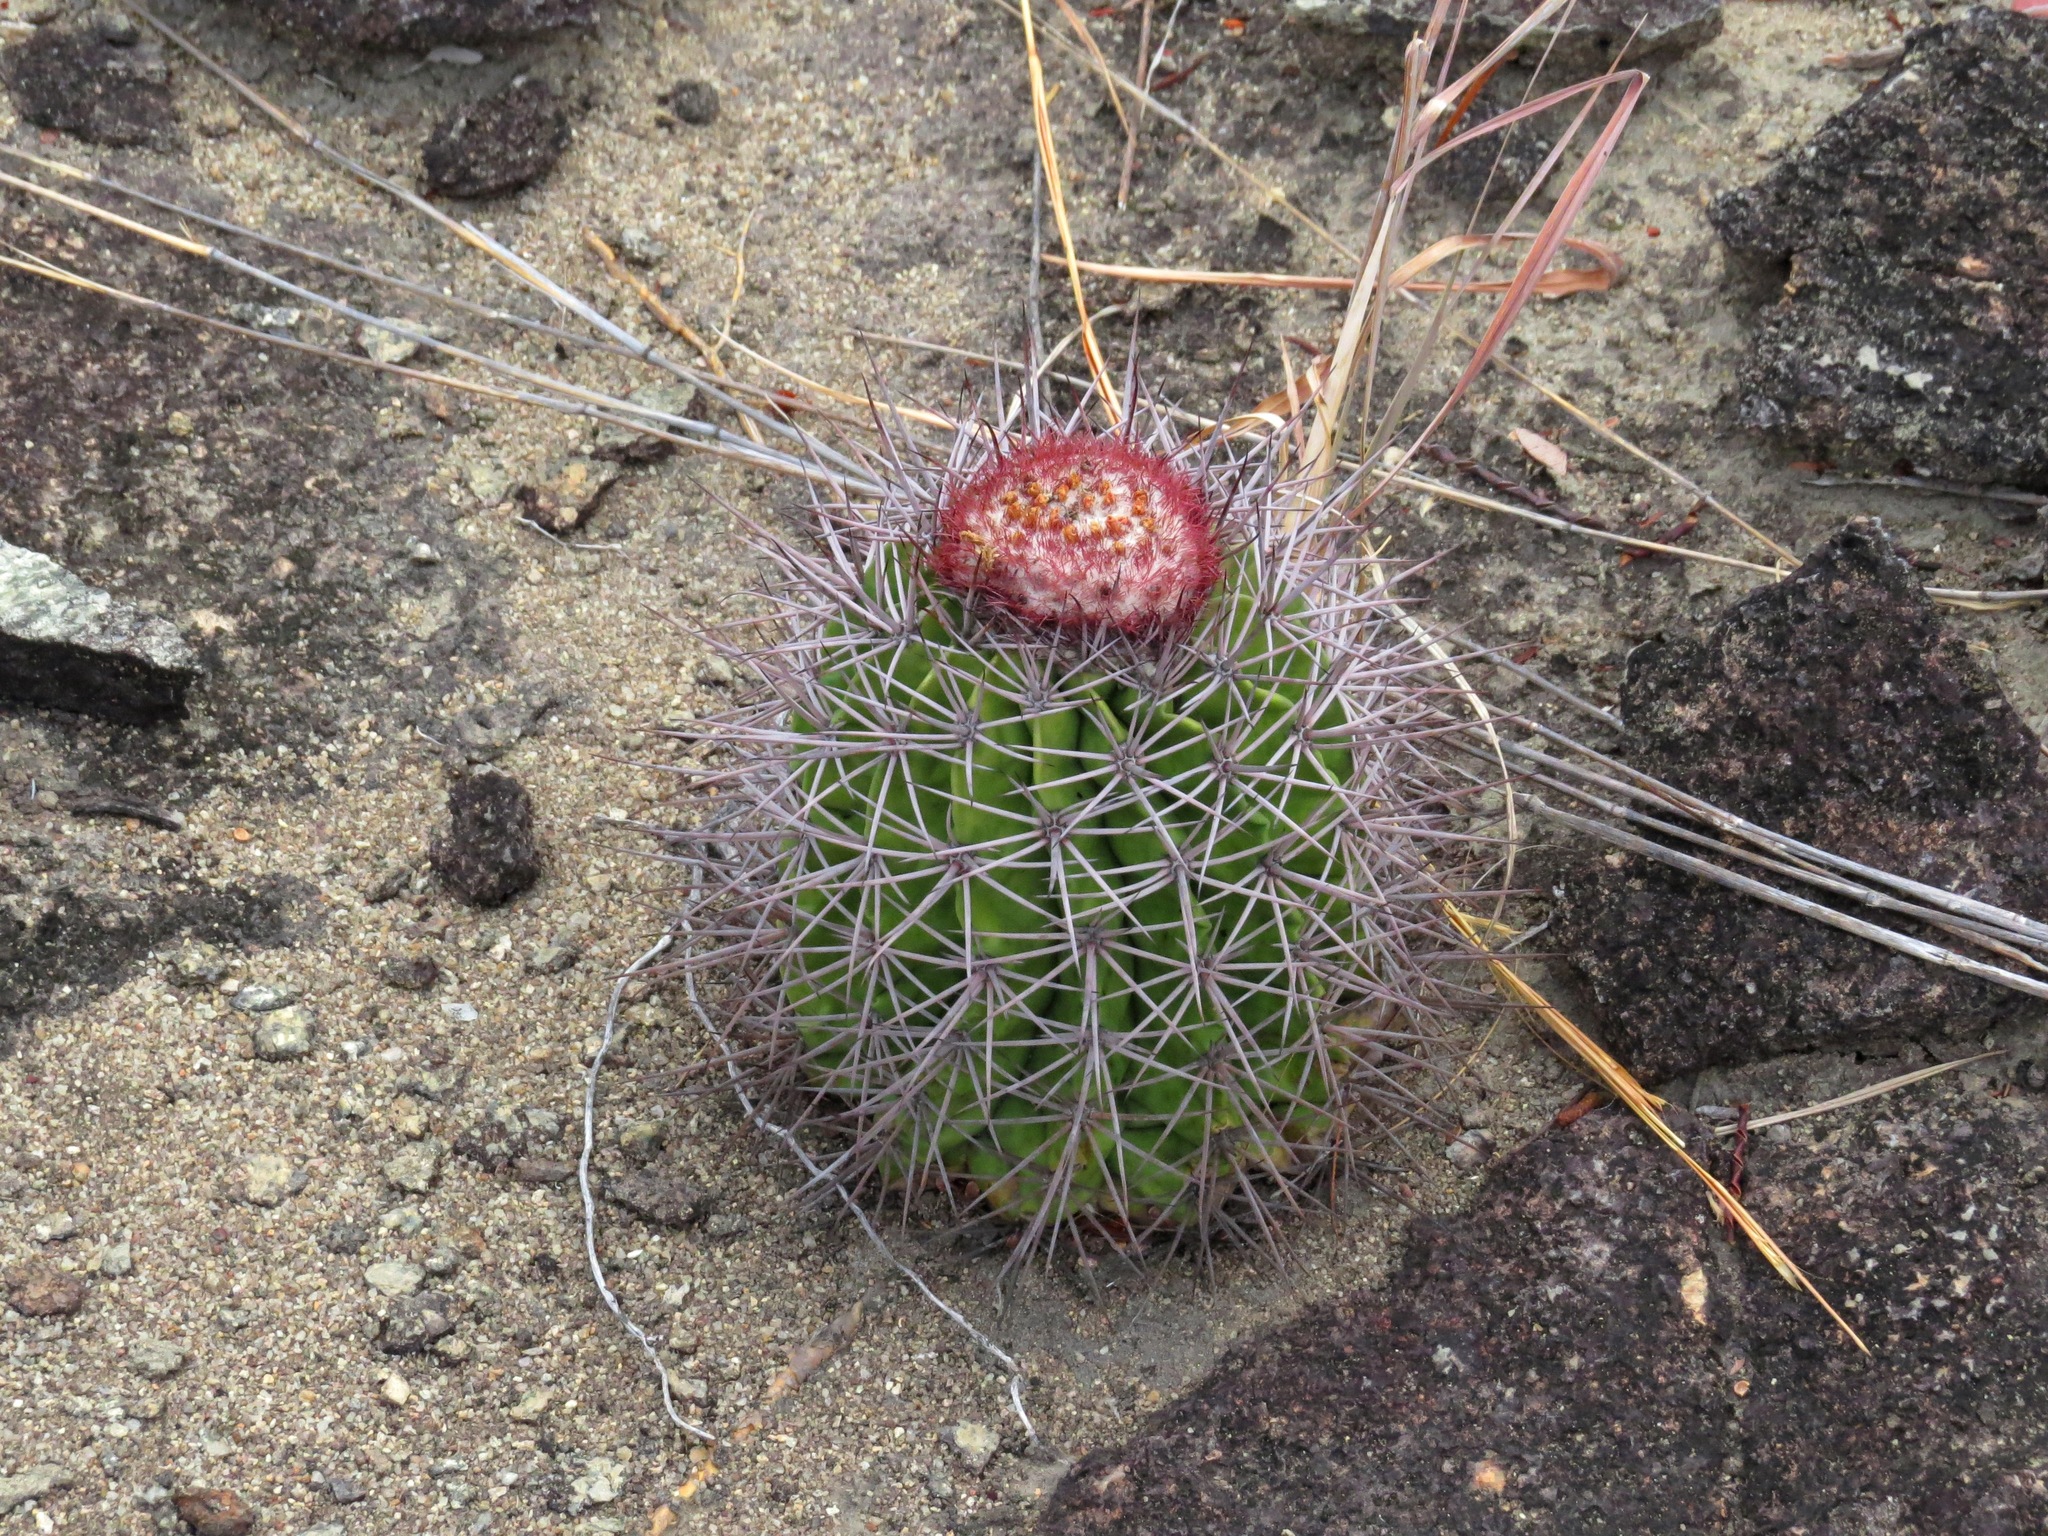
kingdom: Plantae
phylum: Tracheophyta
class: Magnoliopsida
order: Caryophyllales
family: Cactaceae
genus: Melocactus
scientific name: Melocactus smithii
